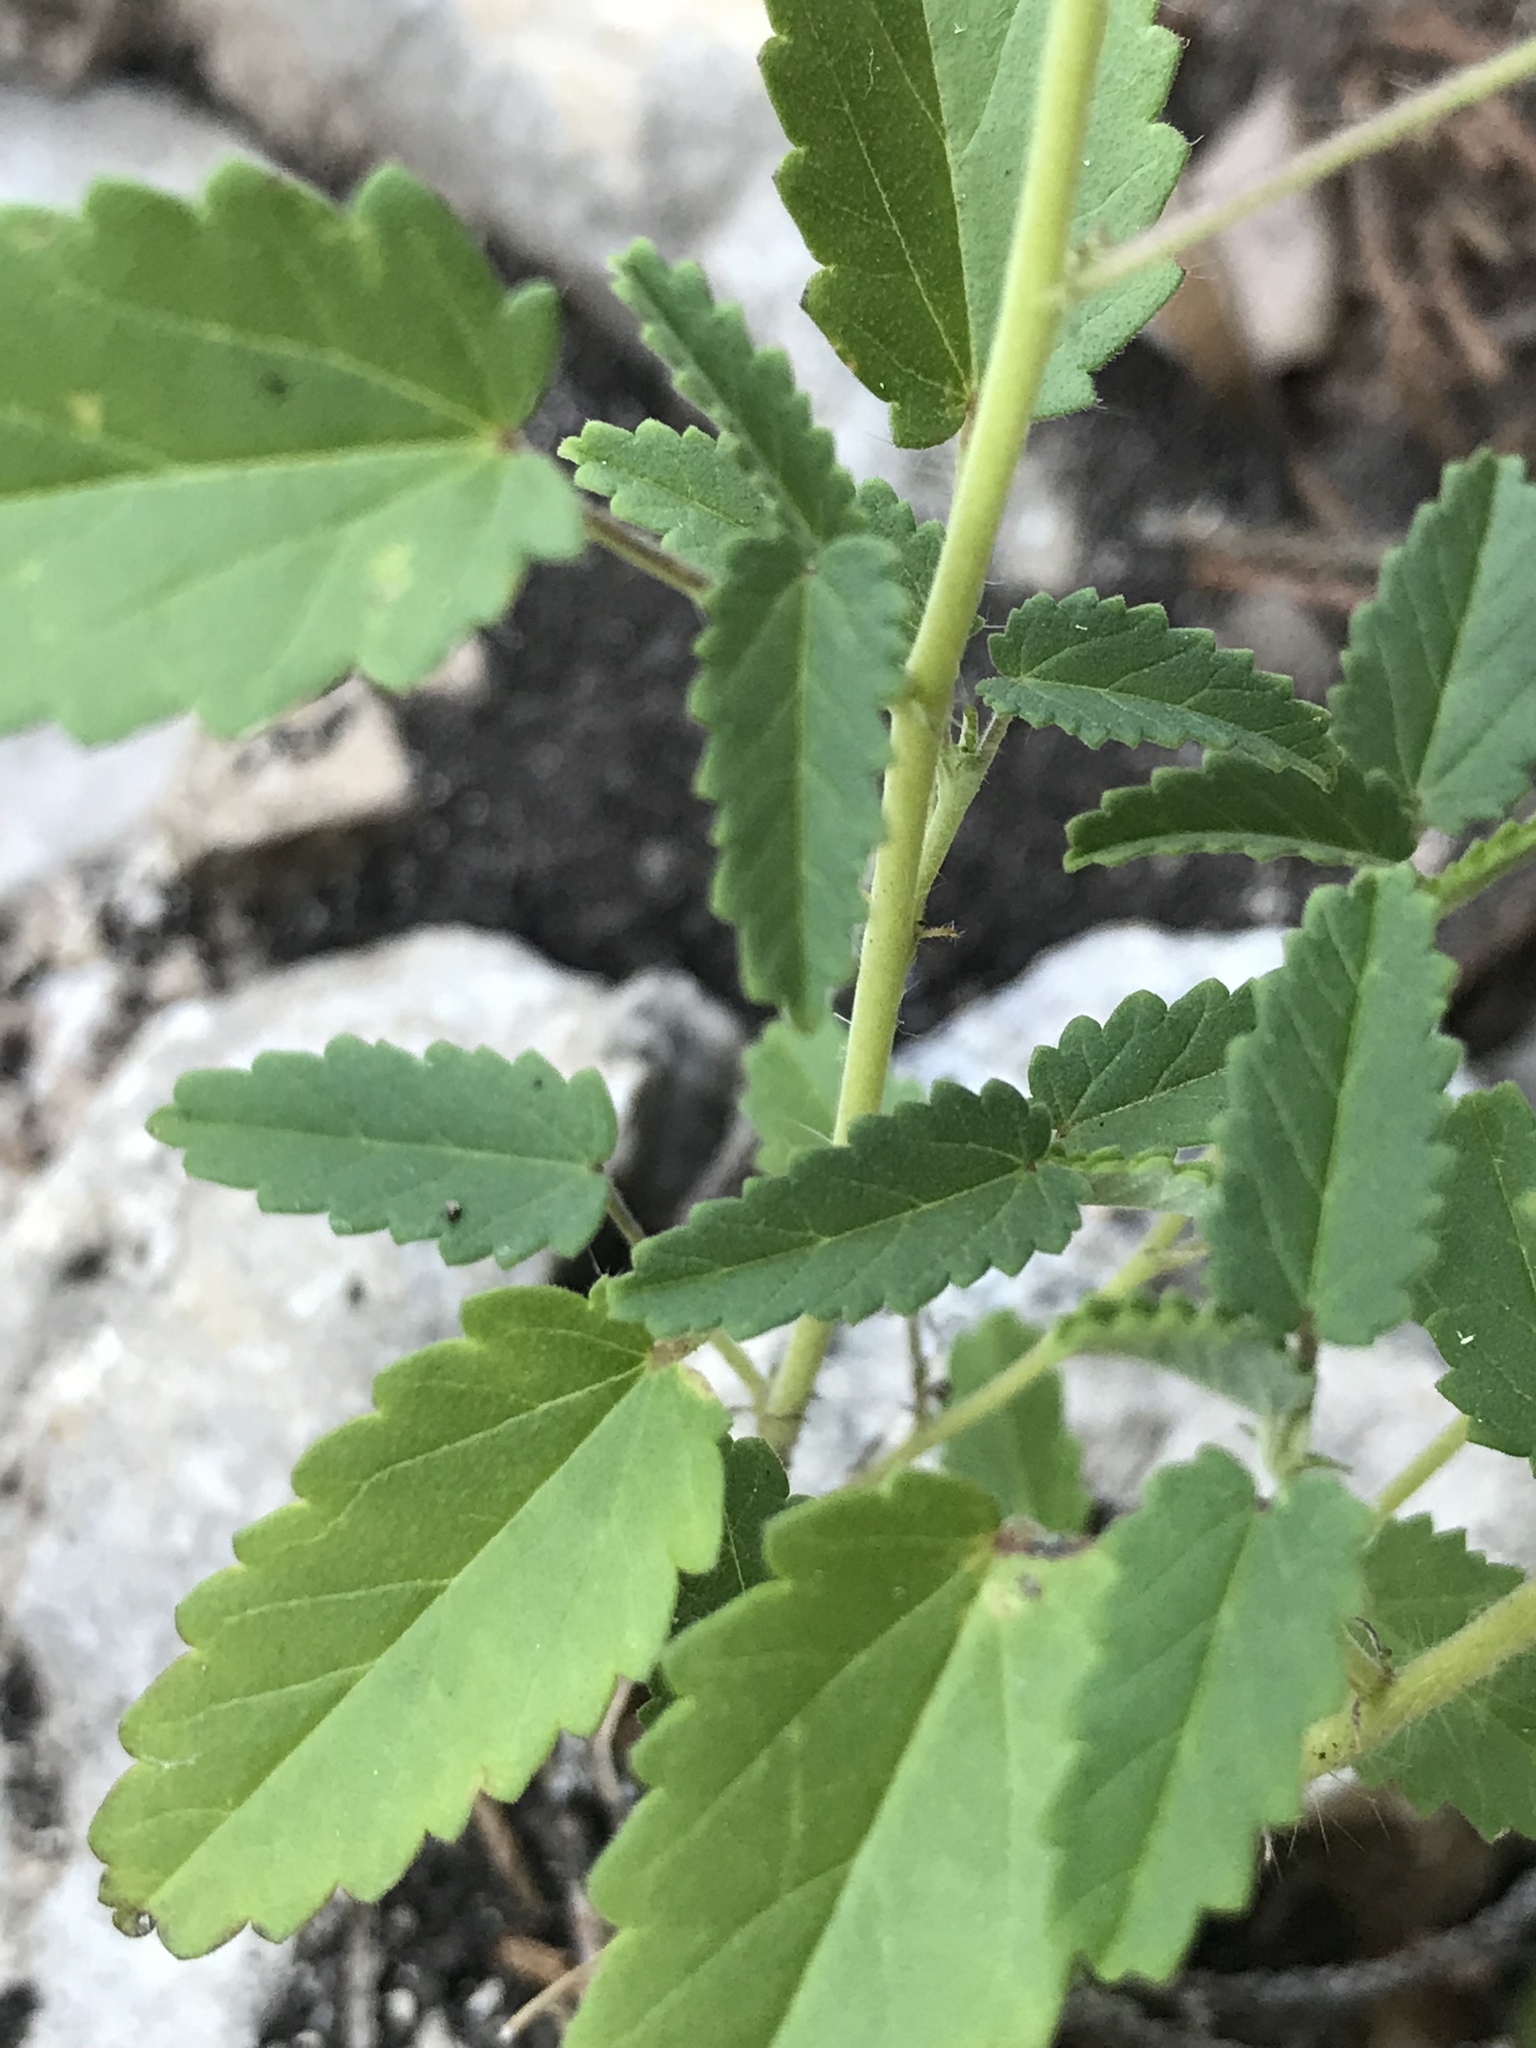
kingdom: Plantae
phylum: Tracheophyta
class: Magnoliopsida
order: Malvales
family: Malvaceae
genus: Sida
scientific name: Sida abutilifolia
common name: Spreading fanpetals
